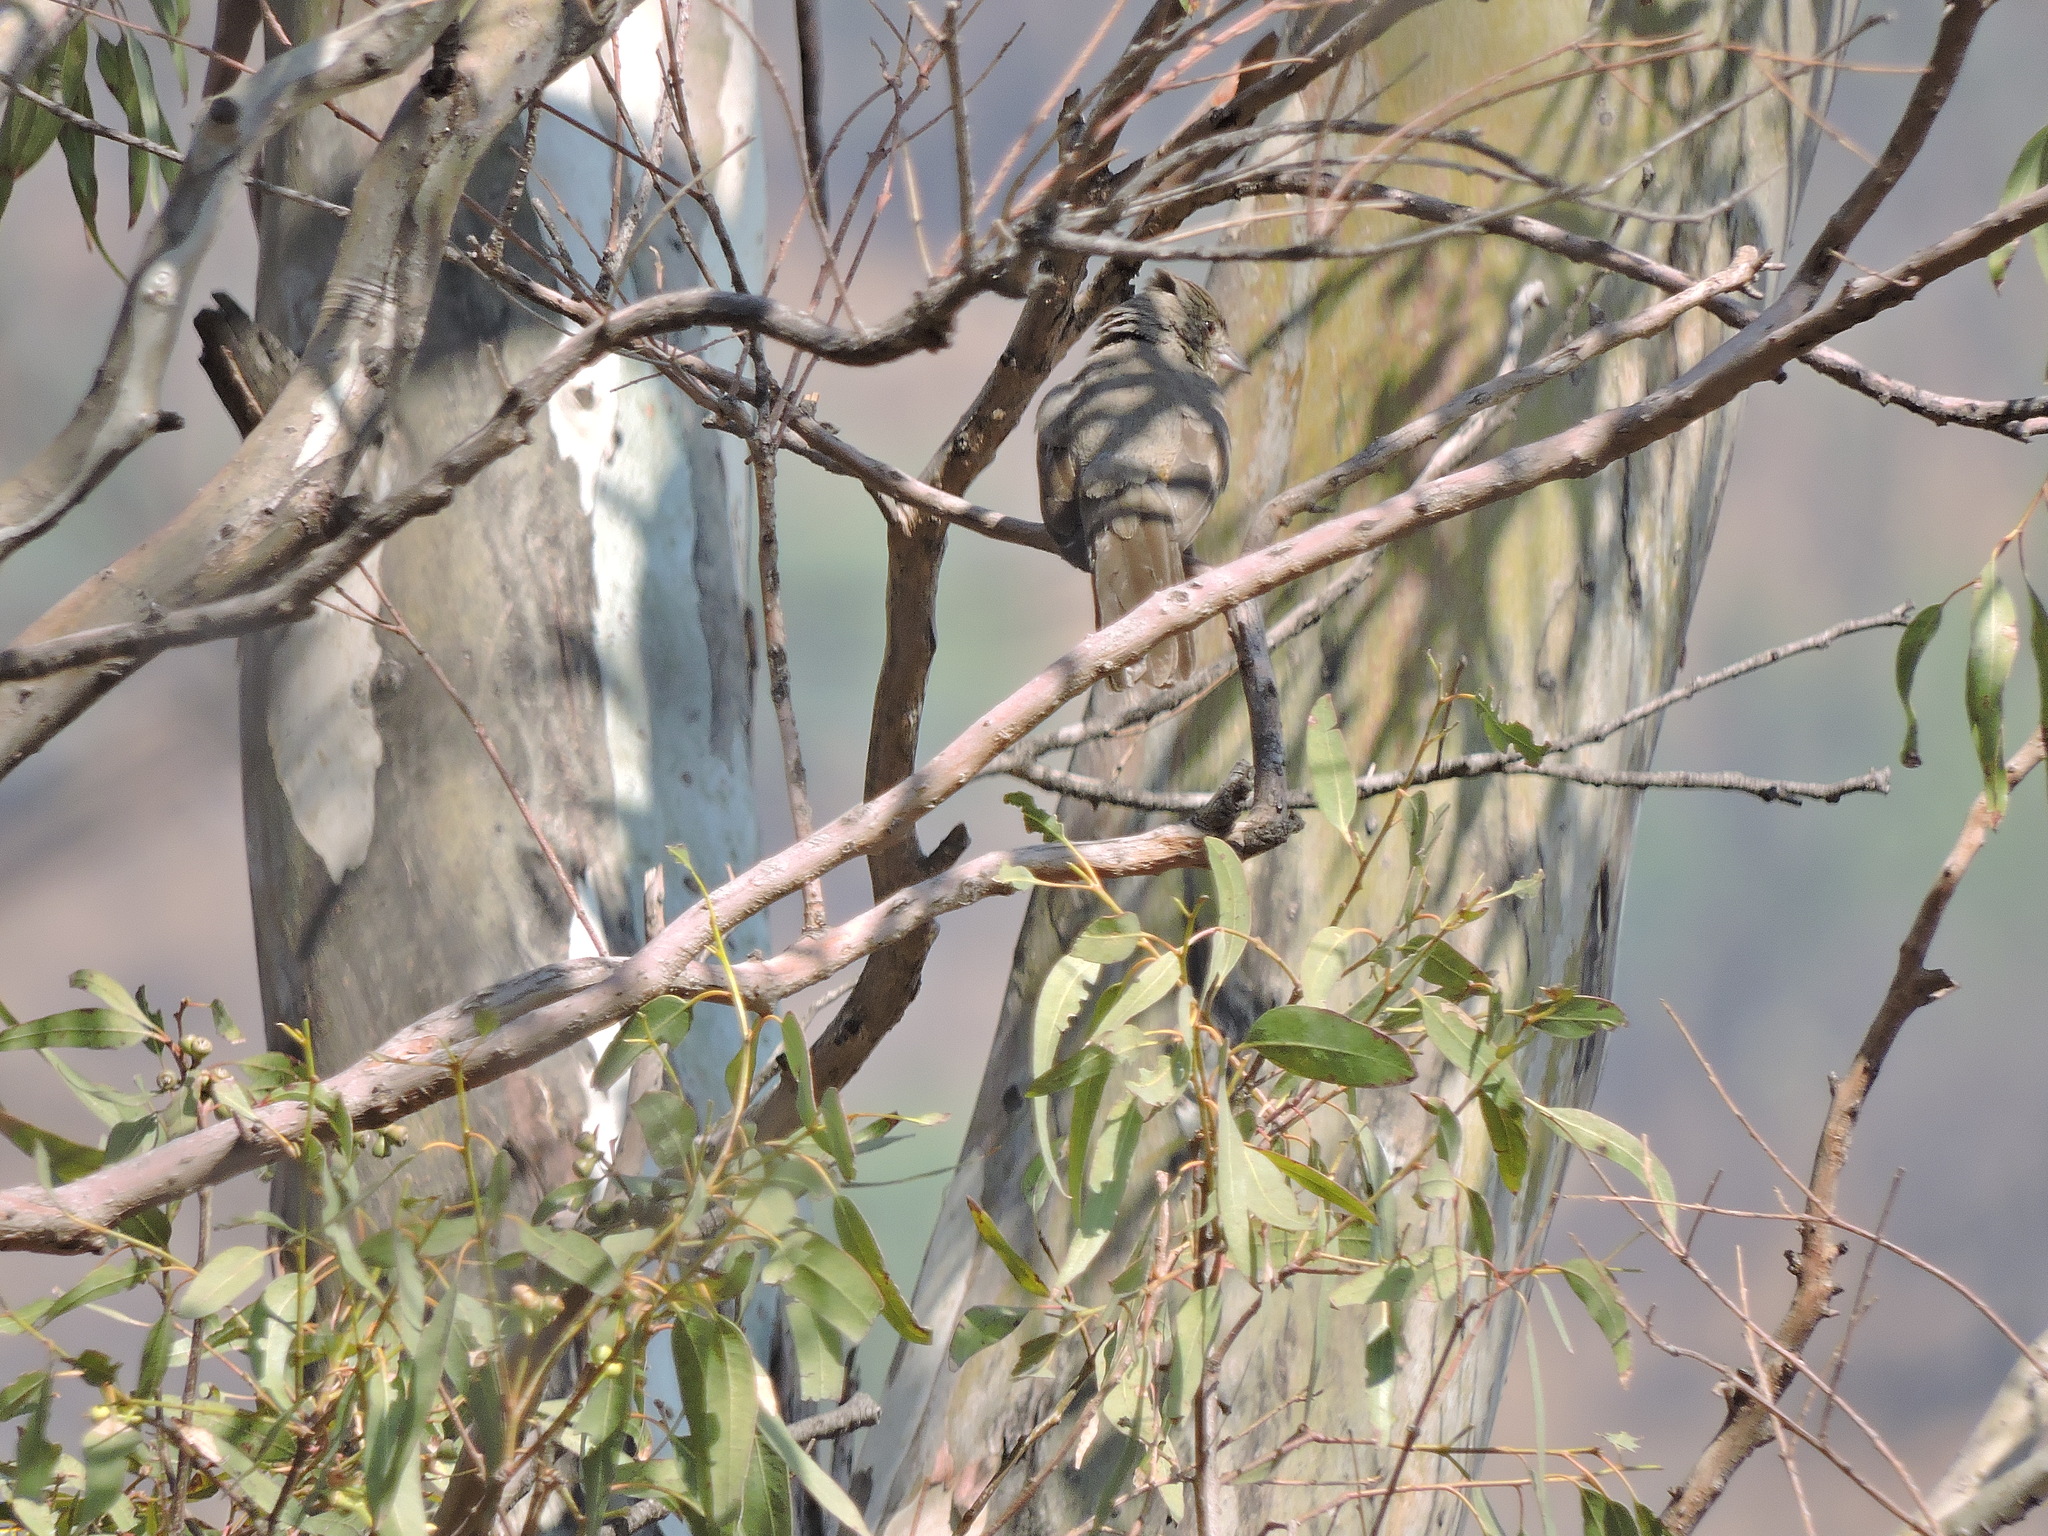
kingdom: Animalia
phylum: Chordata
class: Aves
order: Passeriformes
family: Passerellidae
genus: Melozone
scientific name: Melozone fusca
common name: Canyon towhee
